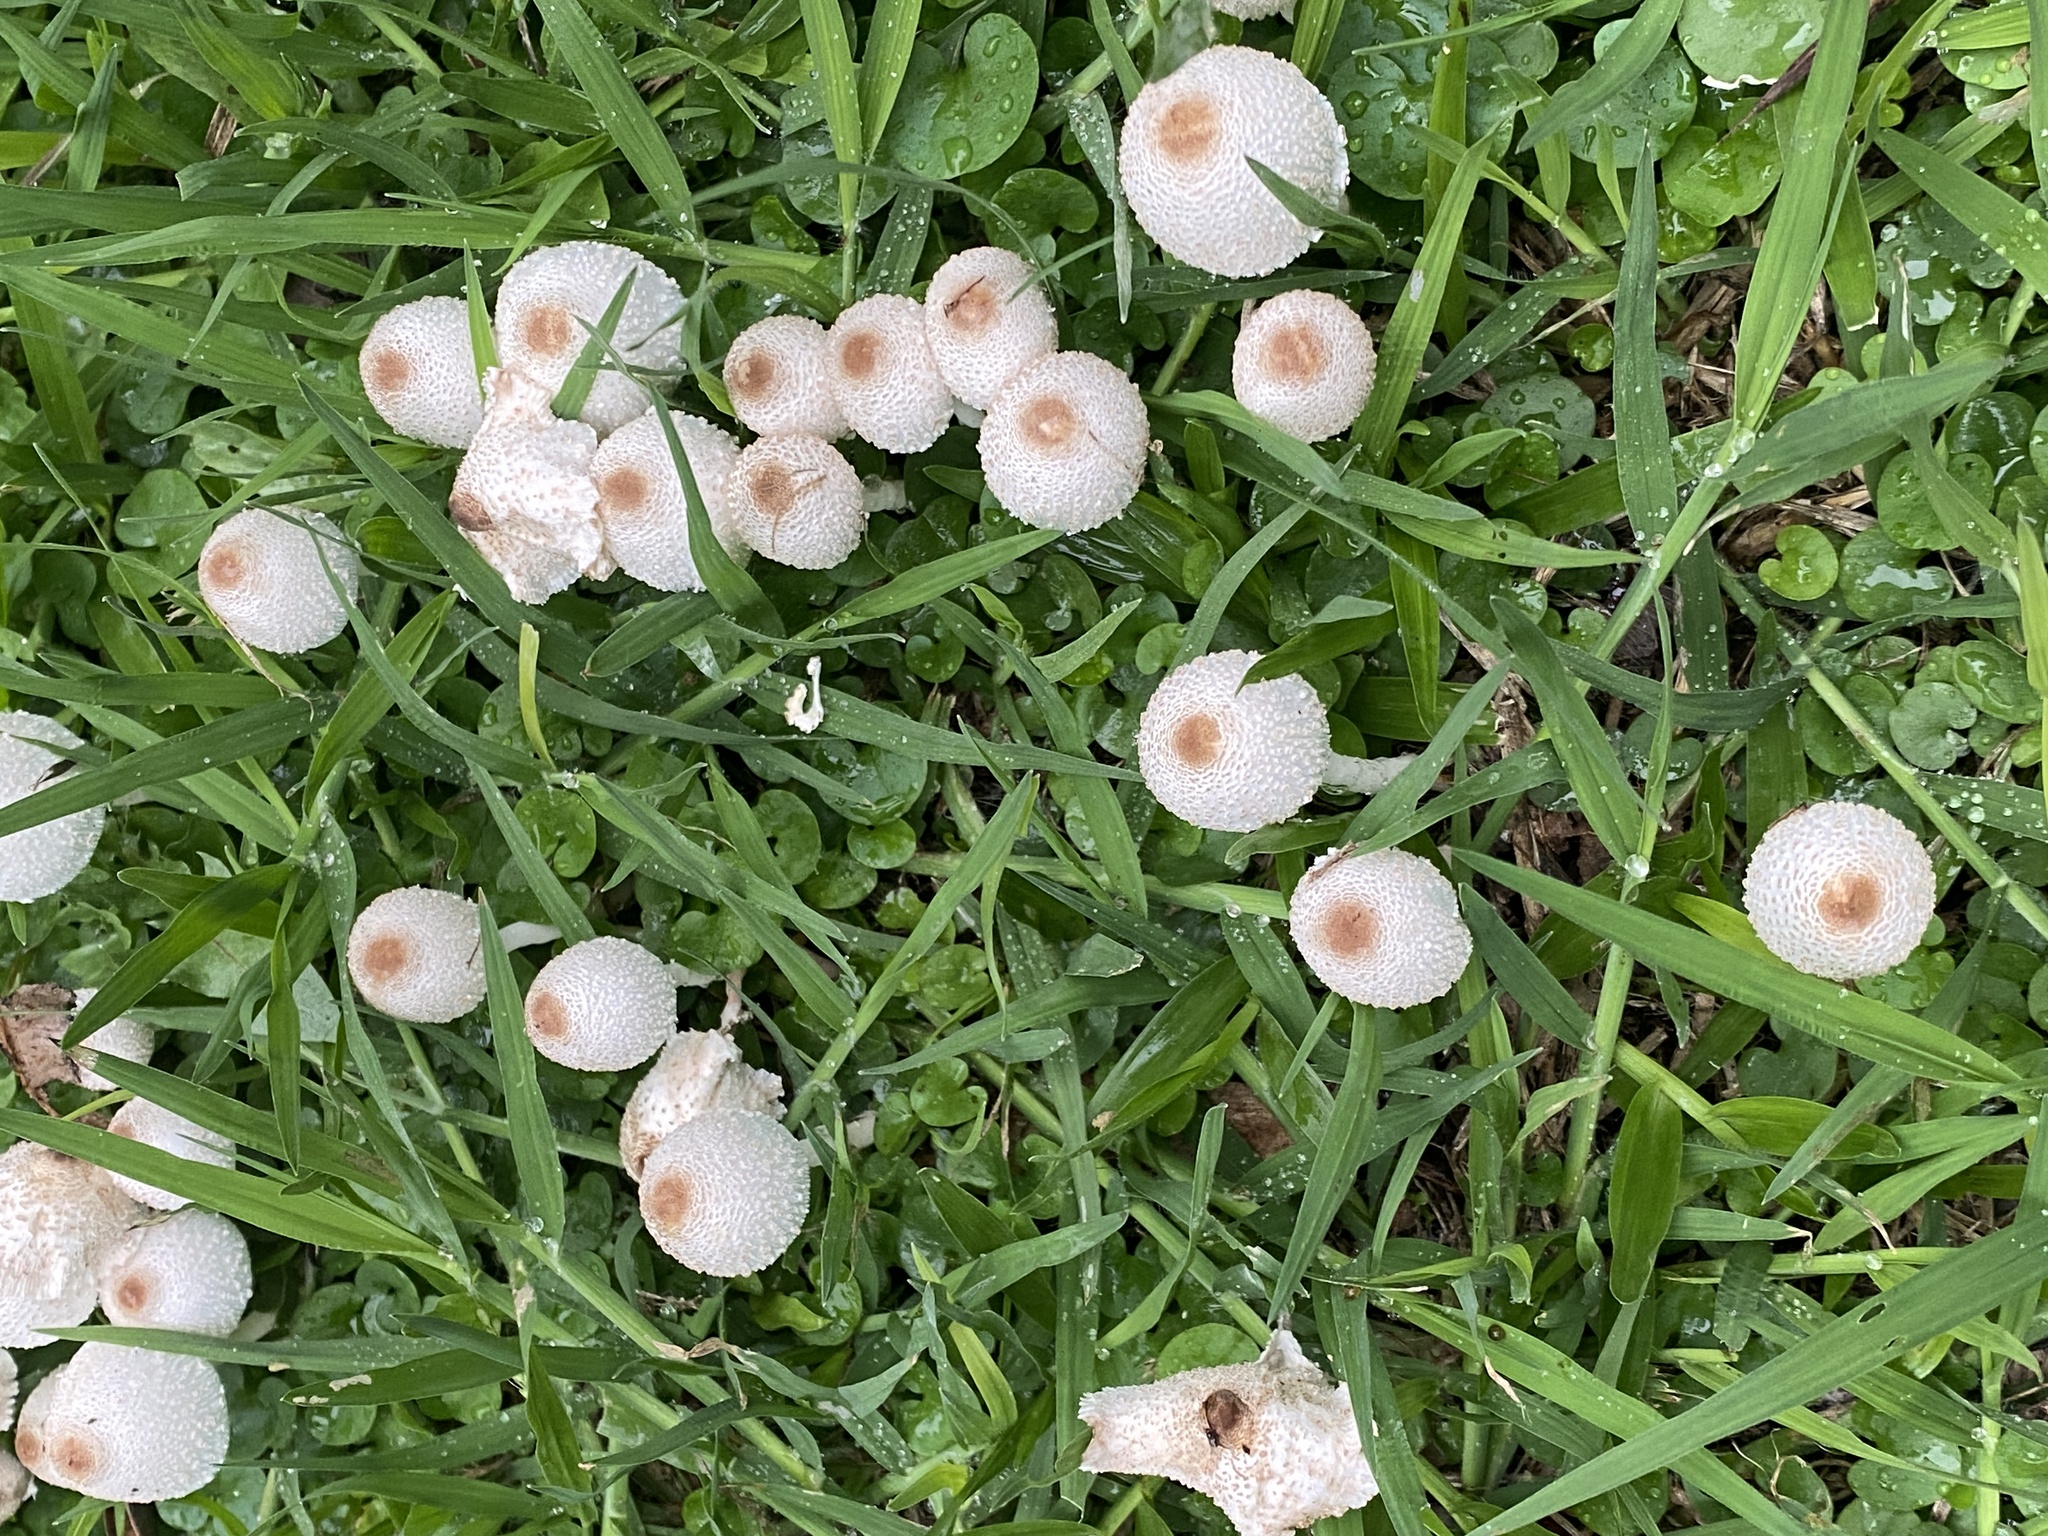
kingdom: Fungi
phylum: Basidiomycota
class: Agaricomycetes
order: Agaricales
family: Agaricaceae
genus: Leucocoprinus
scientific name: Leucocoprinus cepistipes
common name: Onion-stalk parasol
